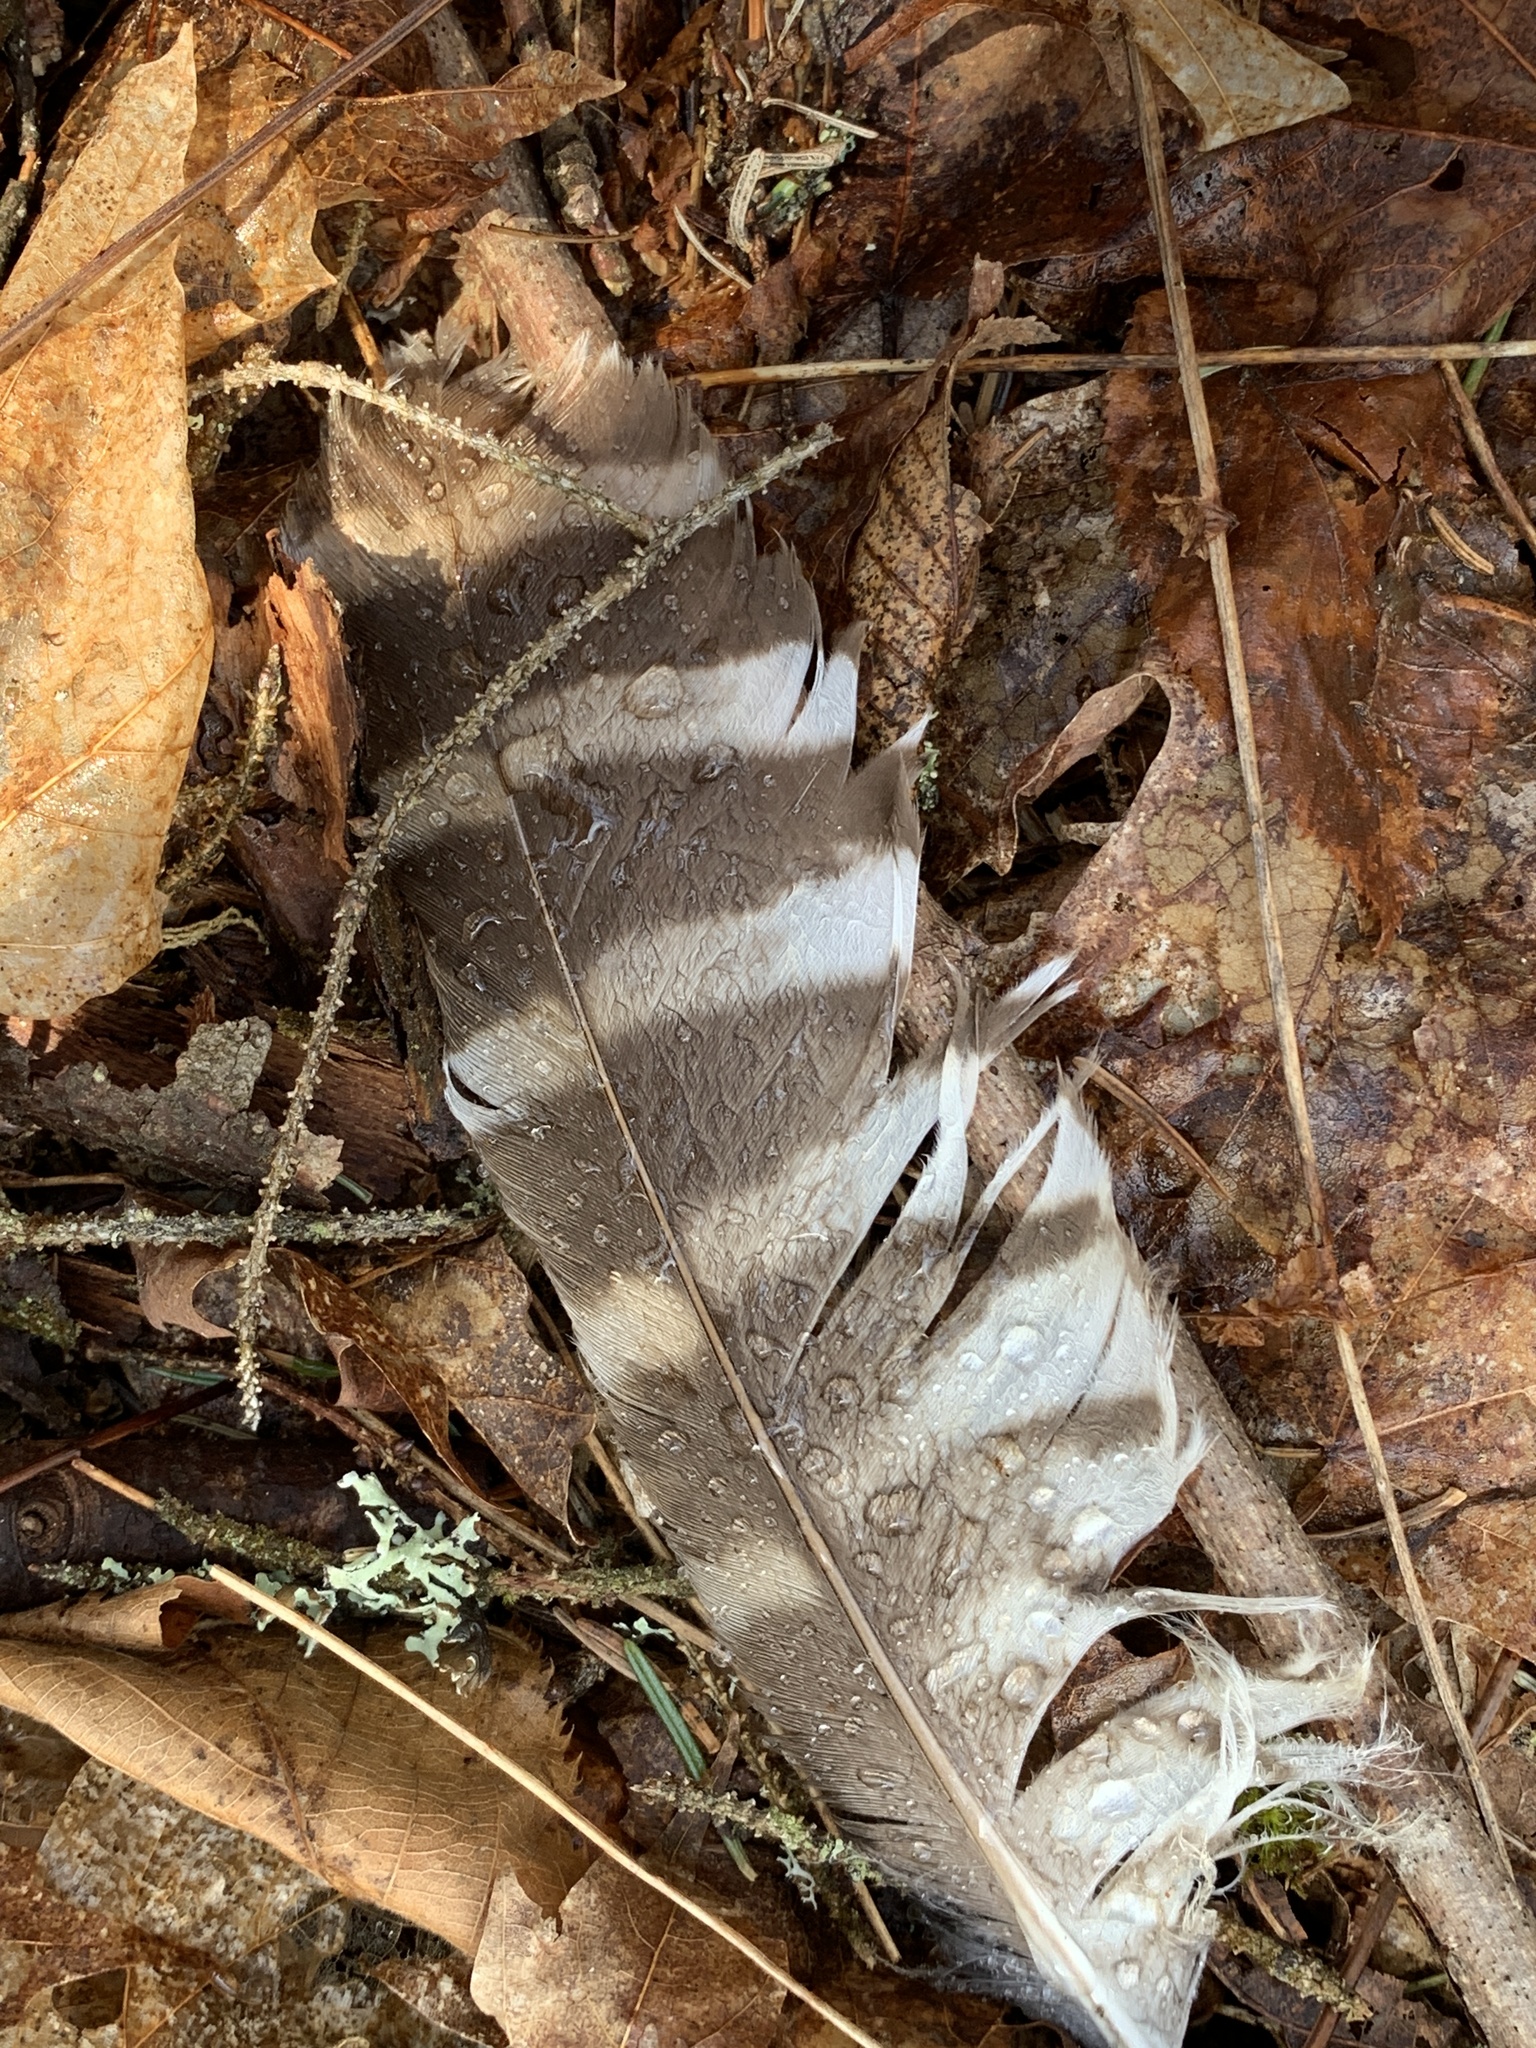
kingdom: Animalia
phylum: Chordata
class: Aves
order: Strigiformes
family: Strigidae
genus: Strix
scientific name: Strix varia
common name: Barred owl
